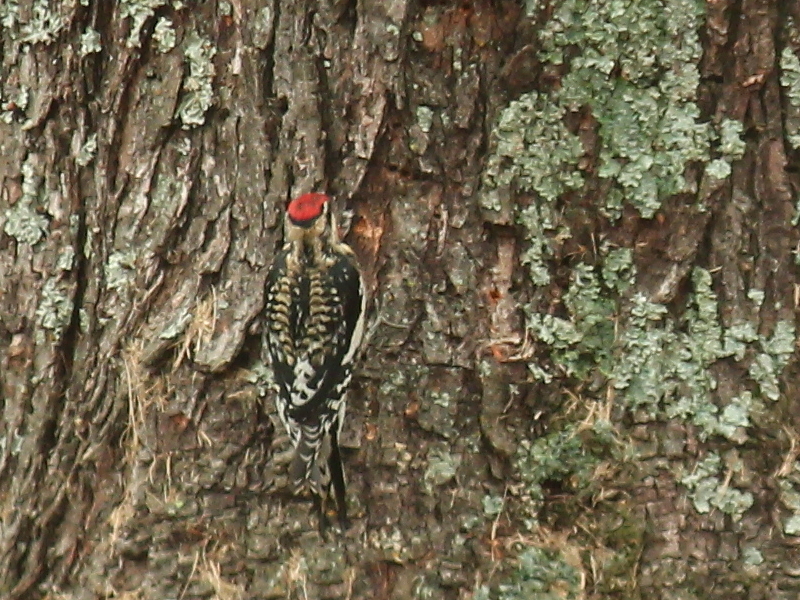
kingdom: Animalia
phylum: Chordata
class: Aves
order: Piciformes
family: Picidae
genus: Sphyrapicus
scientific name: Sphyrapicus varius
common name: Yellow-bellied sapsucker
